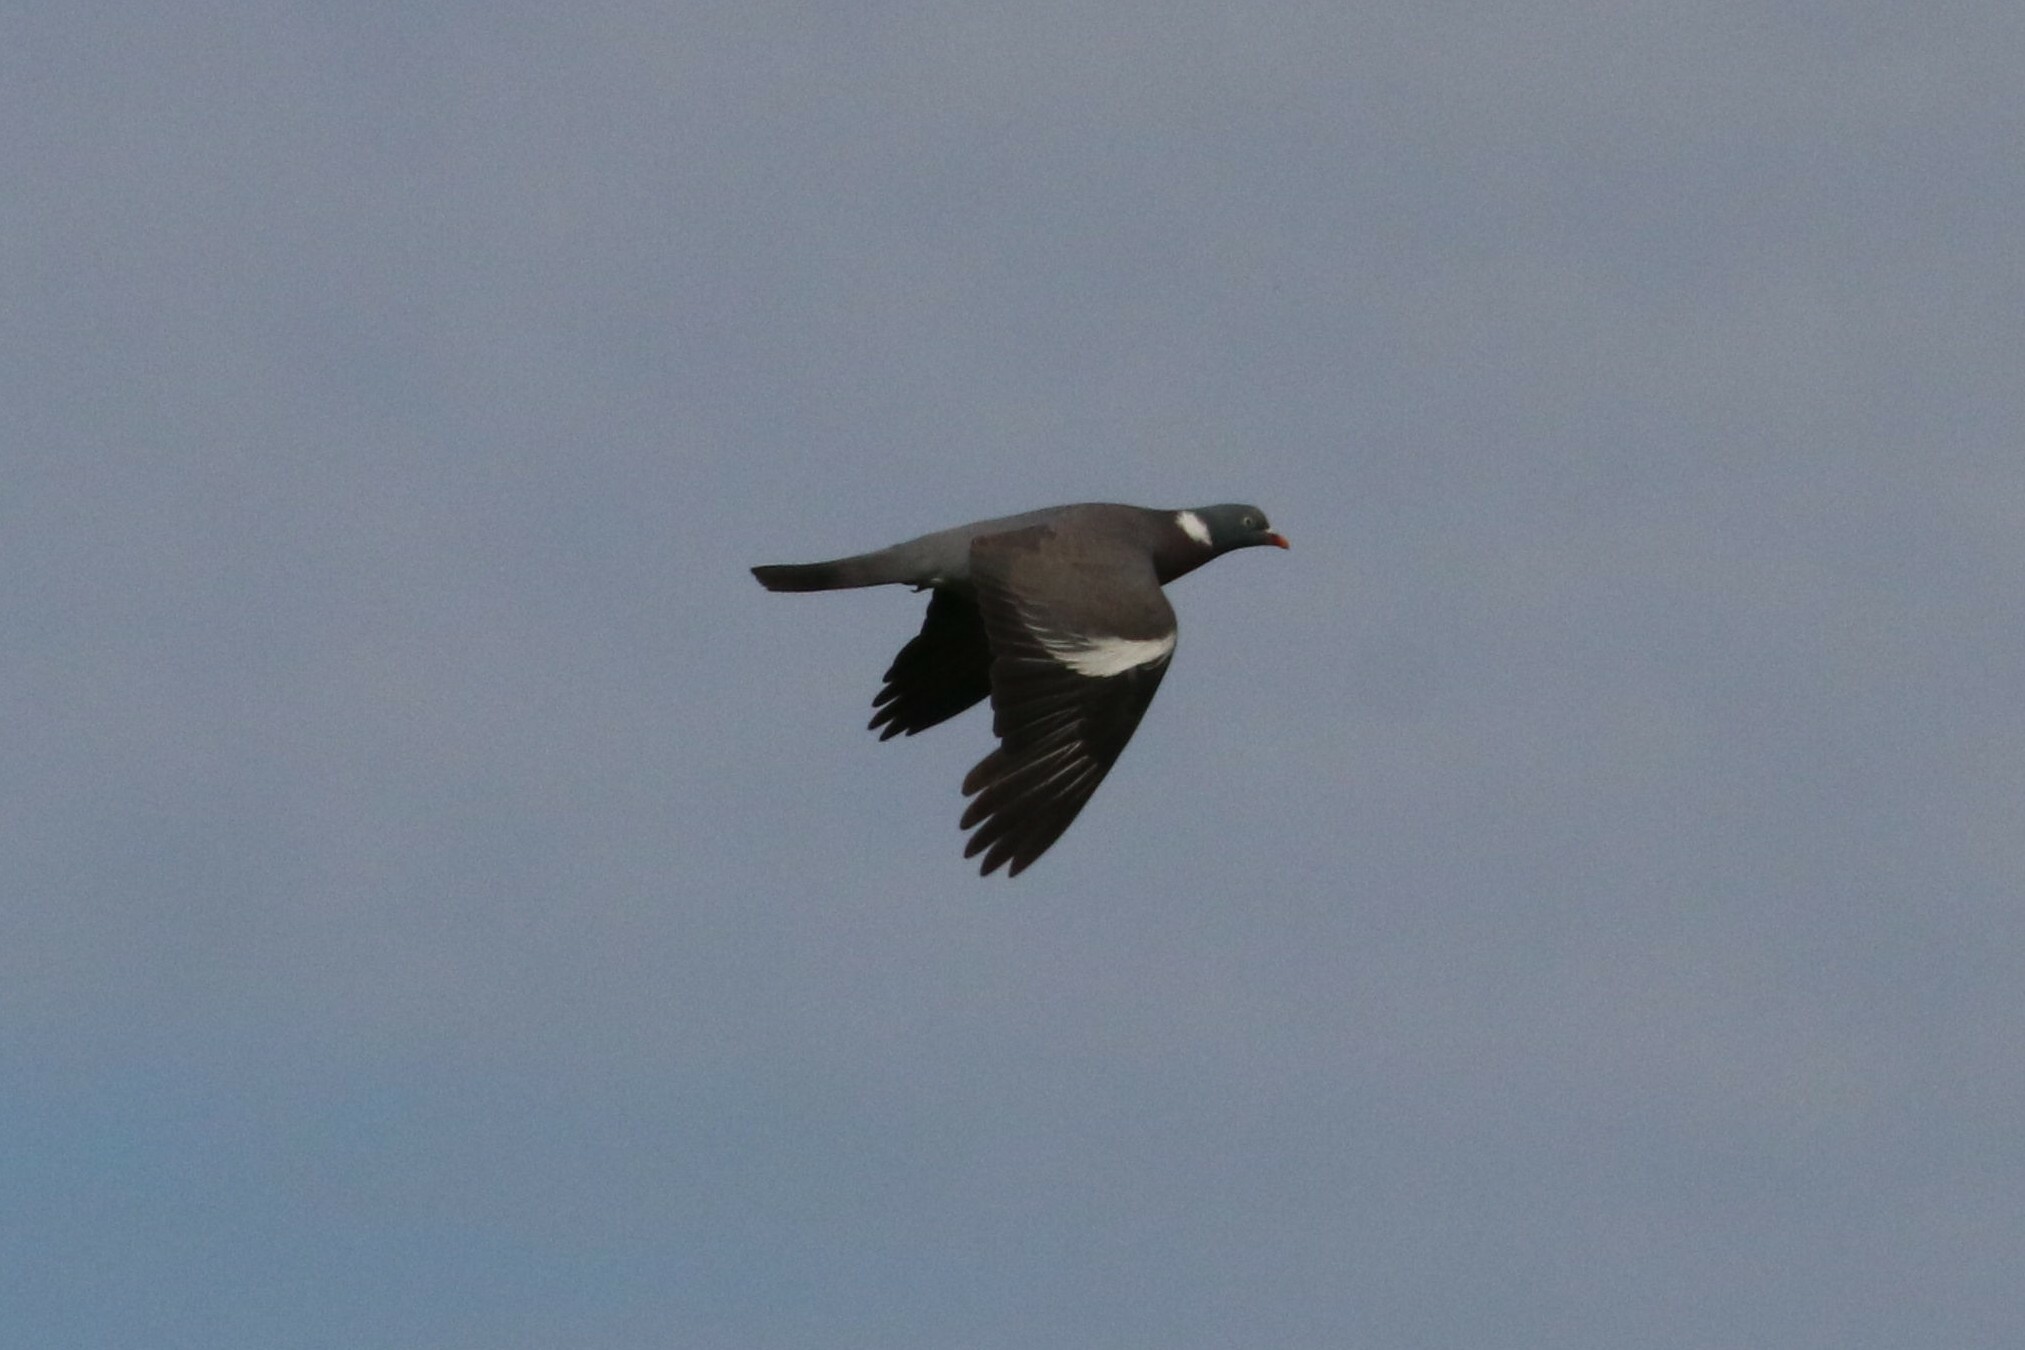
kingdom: Animalia
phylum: Chordata
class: Aves
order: Columbiformes
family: Columbidae
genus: Columba
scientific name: Columba palumbus
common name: Common wood pigeon
